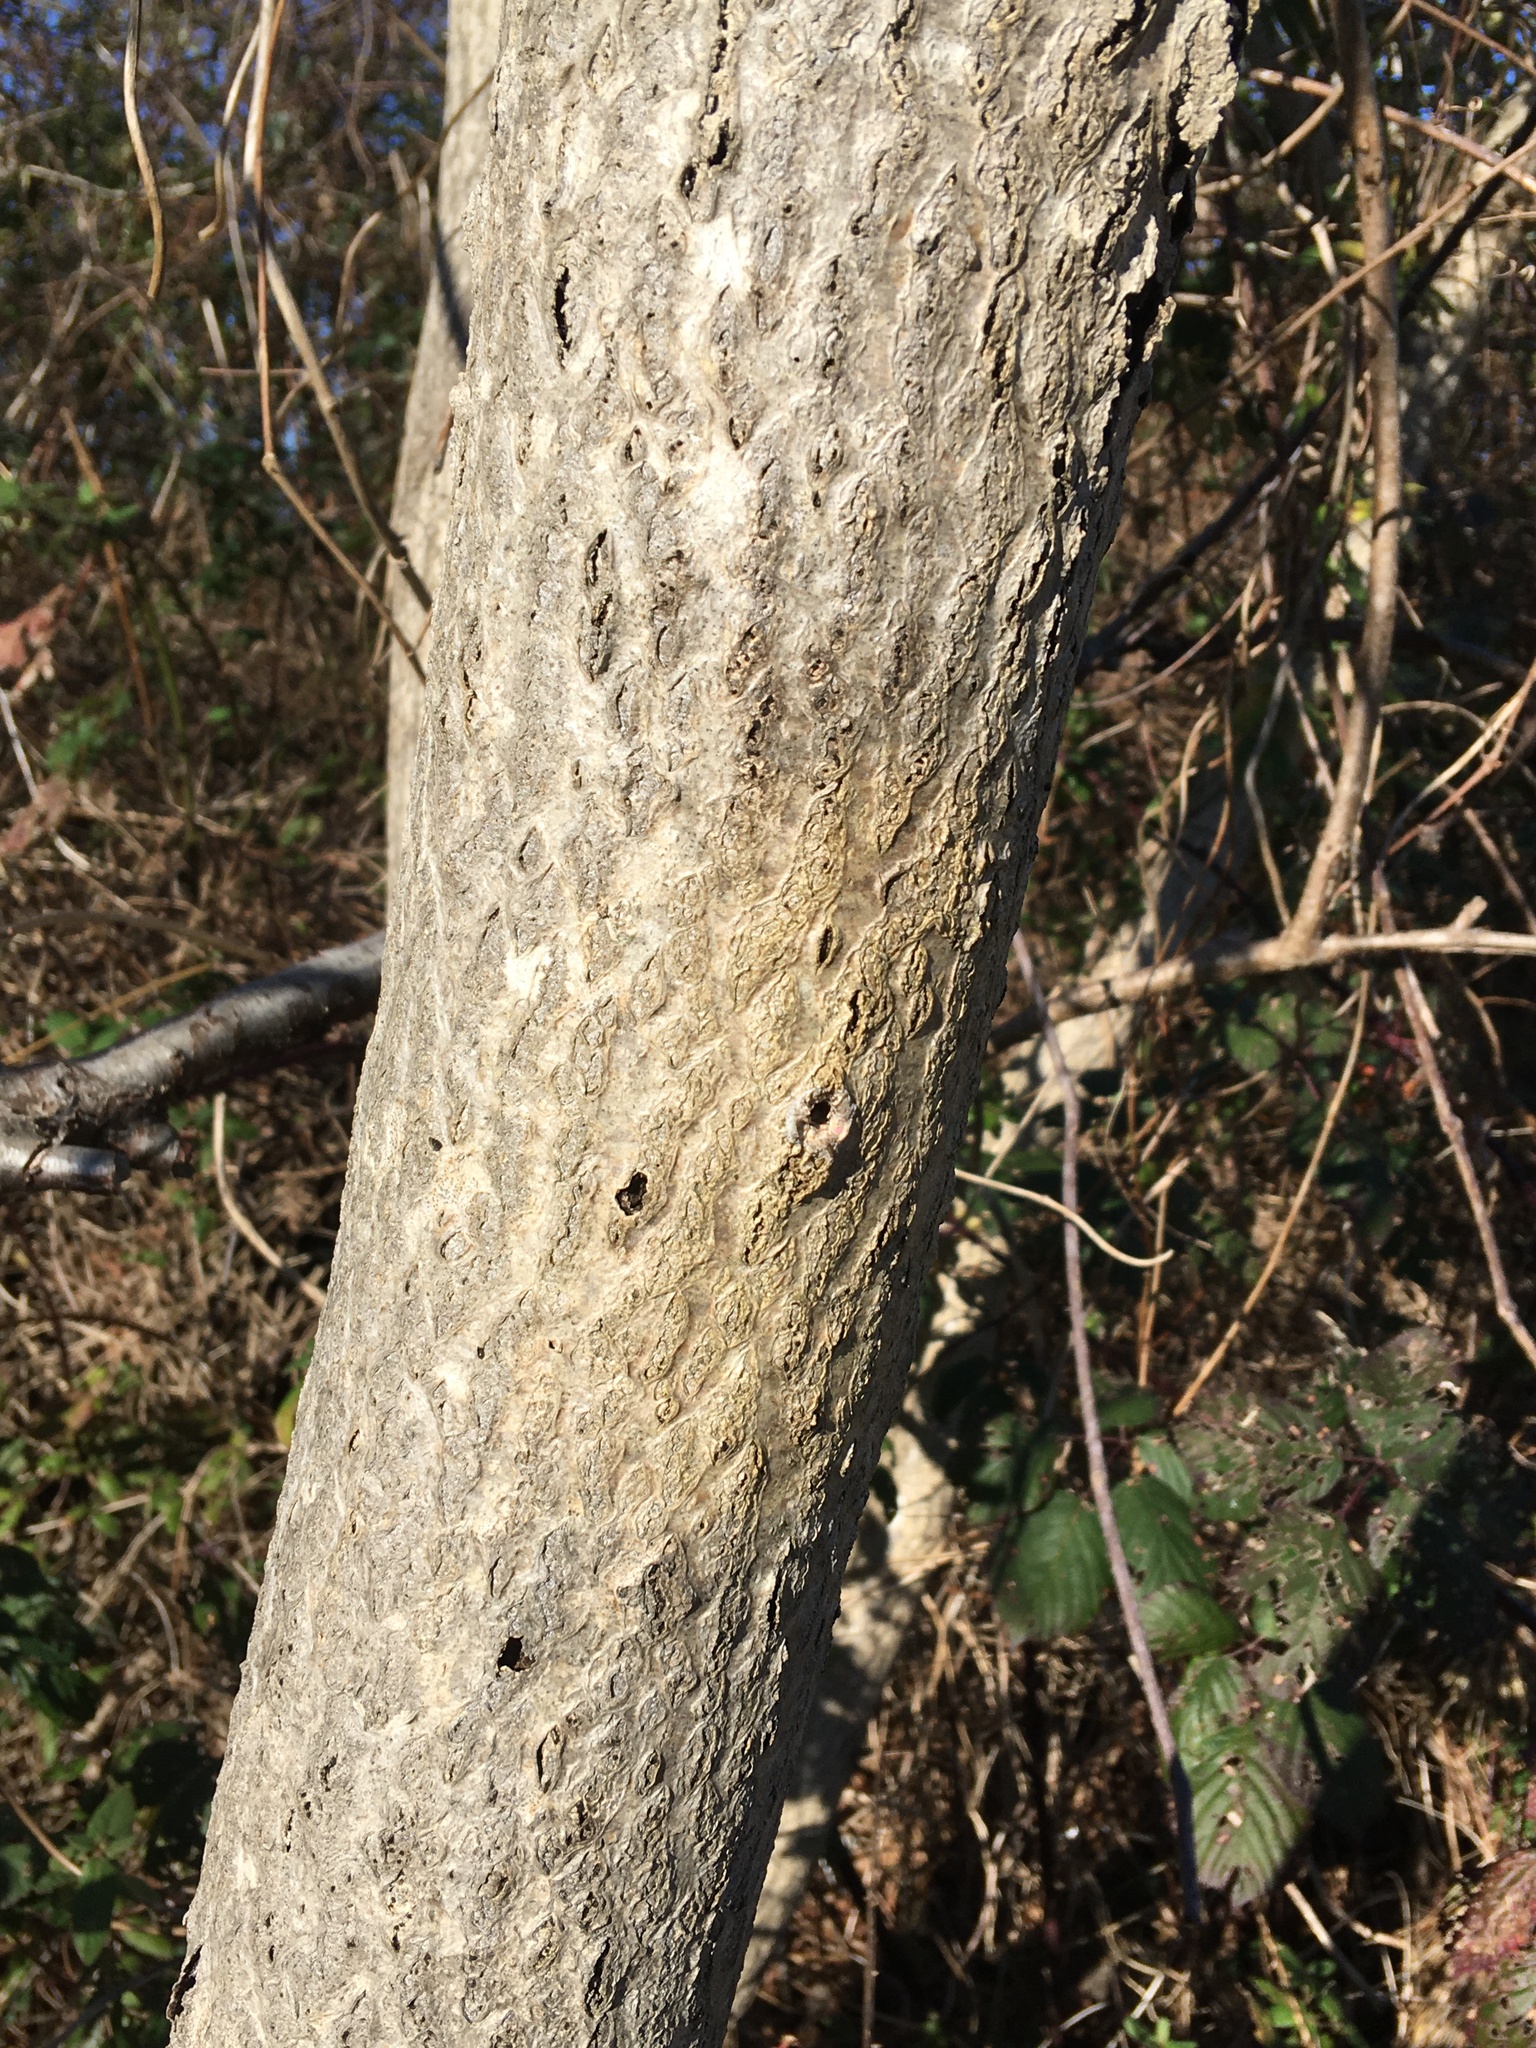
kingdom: Plantae
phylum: Tracheophyta
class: Magnoliopsida
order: Sapindales
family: Simaroubaceae
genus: Ailanthus
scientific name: Ailanthus altissima
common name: Tree-of-heaven
